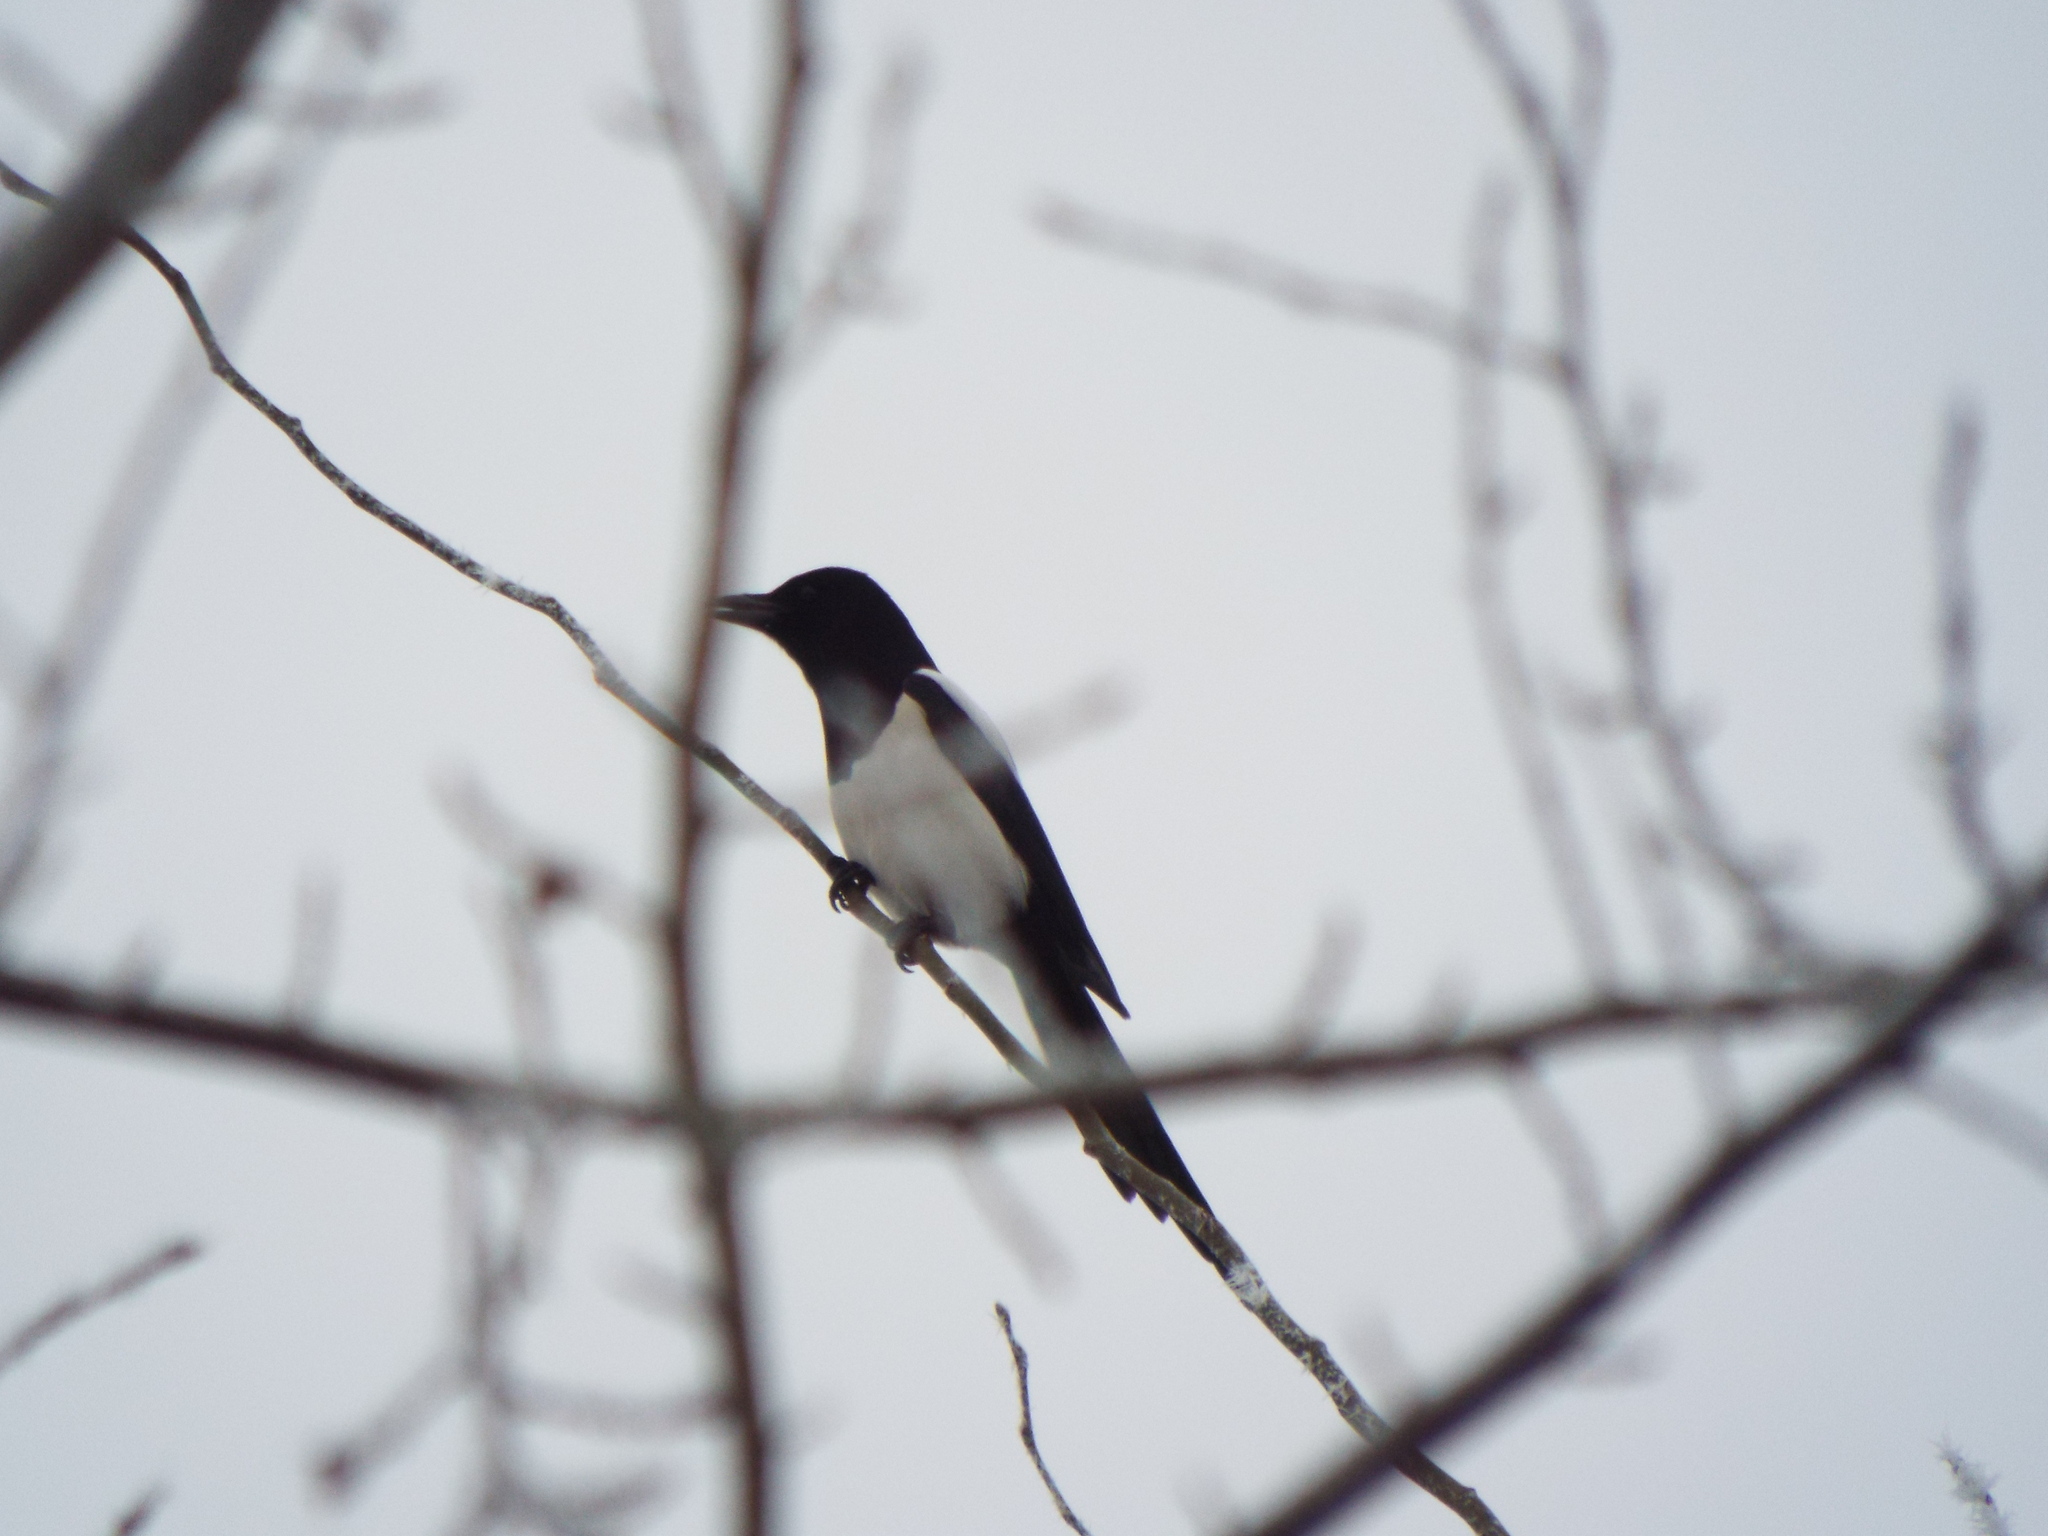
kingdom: Animalia
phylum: Chordata
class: Aves
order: Passeriformes
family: Corvidae
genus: Pica
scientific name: Pica pica
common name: Eurasian magpie
